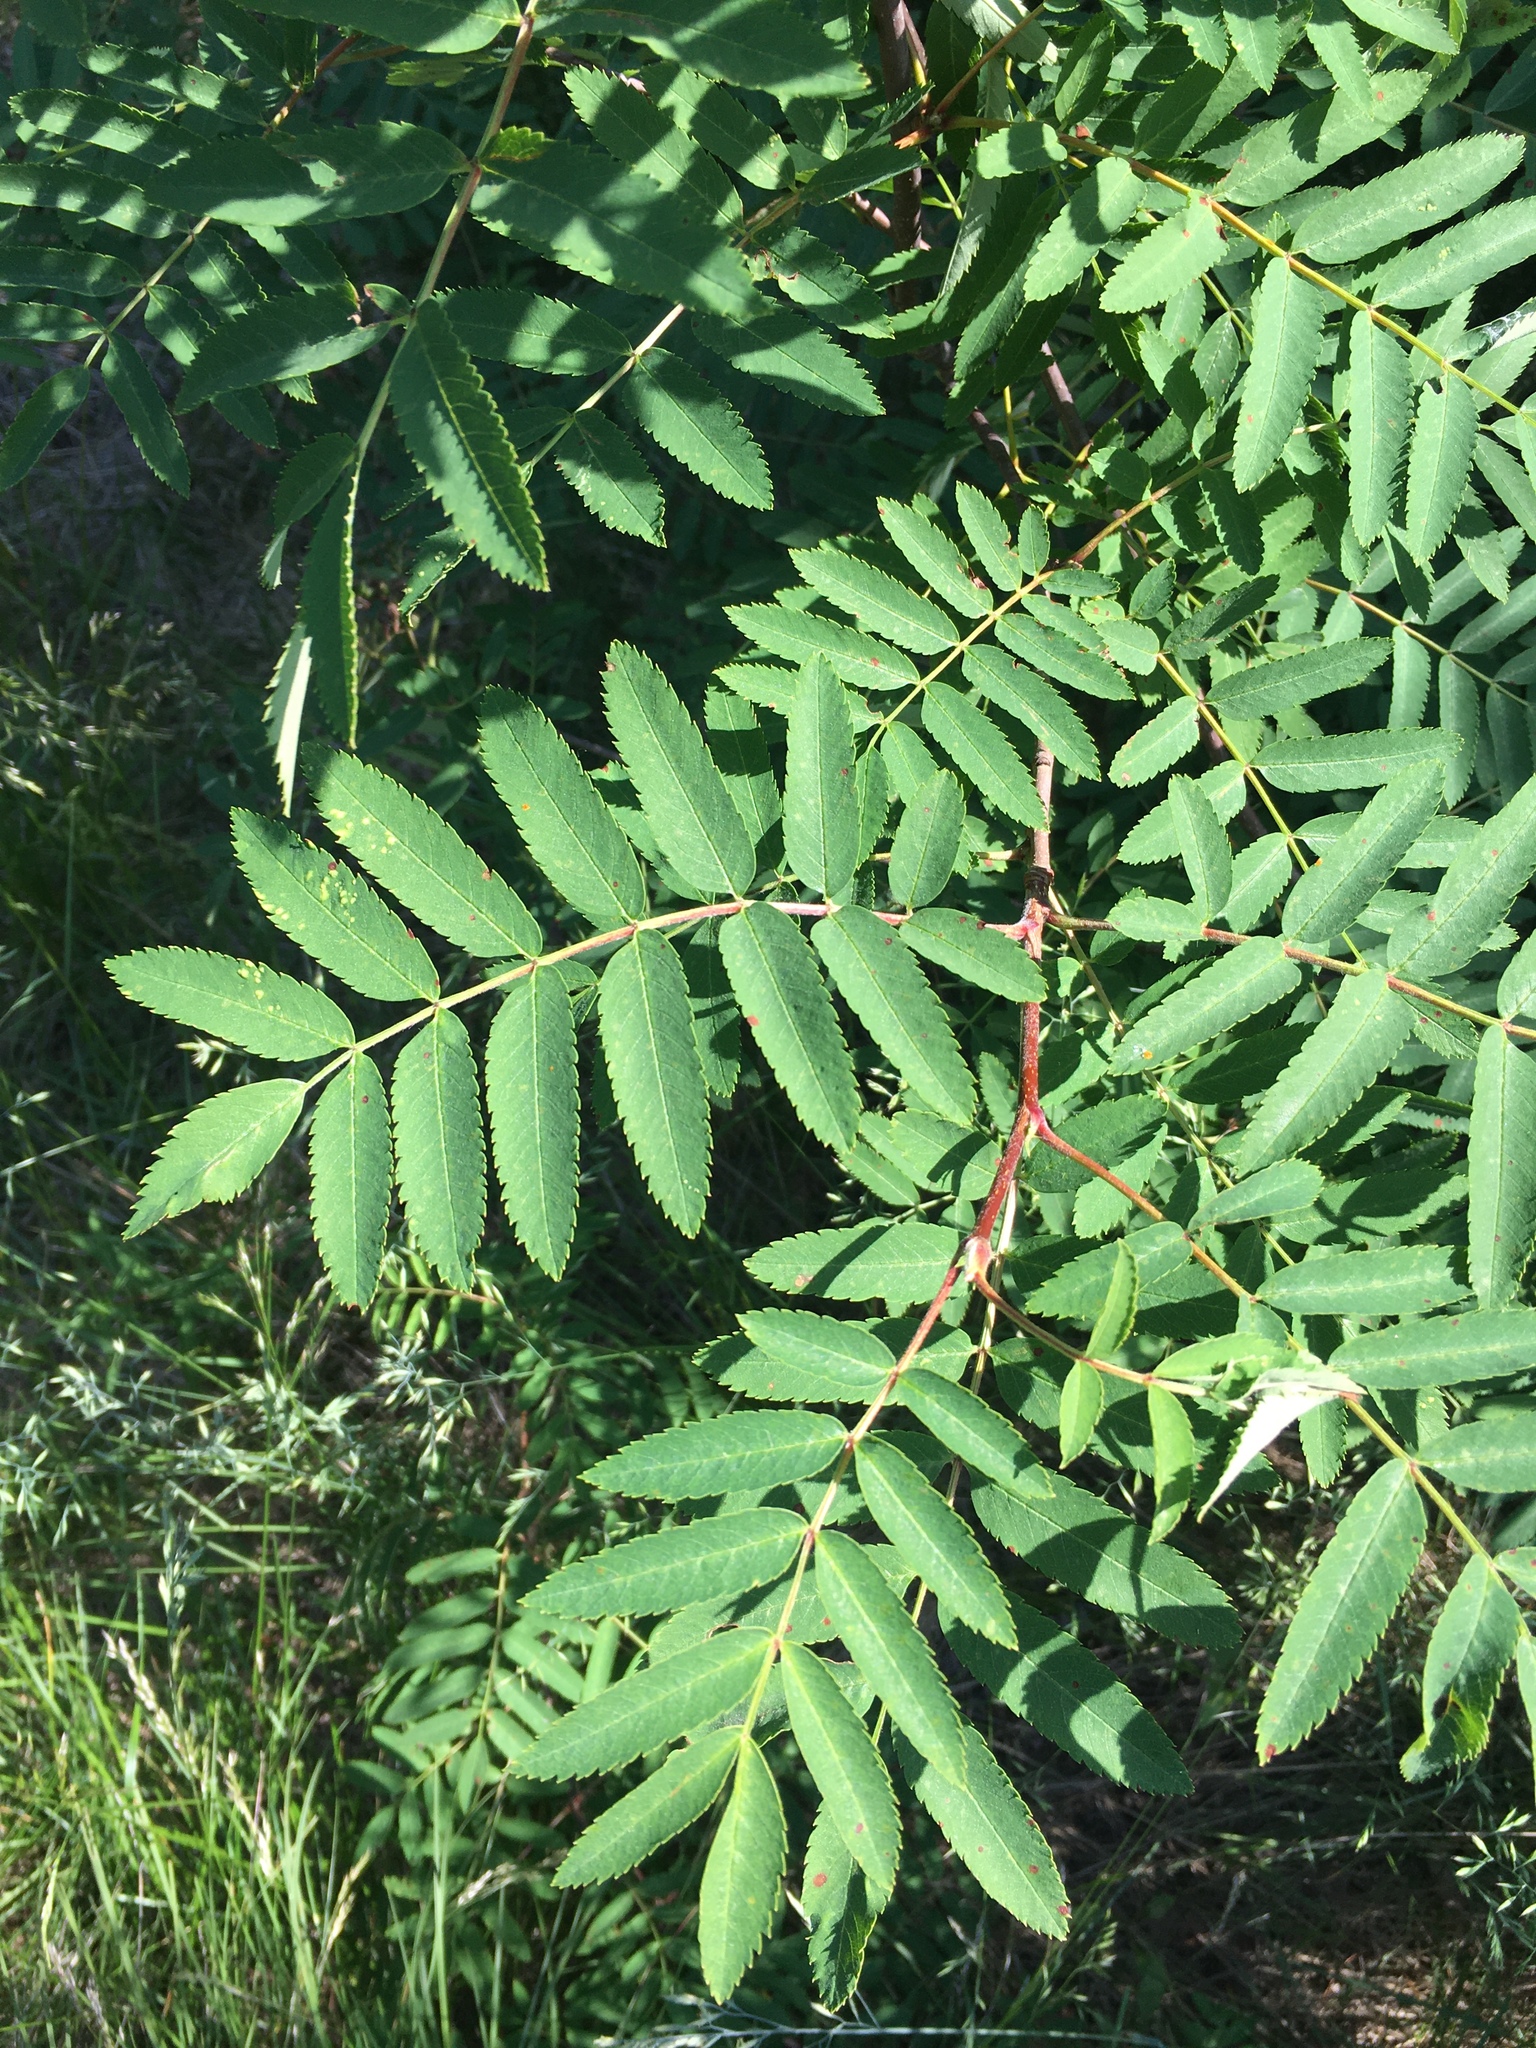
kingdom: Plantae
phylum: Tracheophyta
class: Magnoliopsida
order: Rosales
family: Rosaceae
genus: Sorbus
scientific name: Sorbus aucuparia
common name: Rowan
